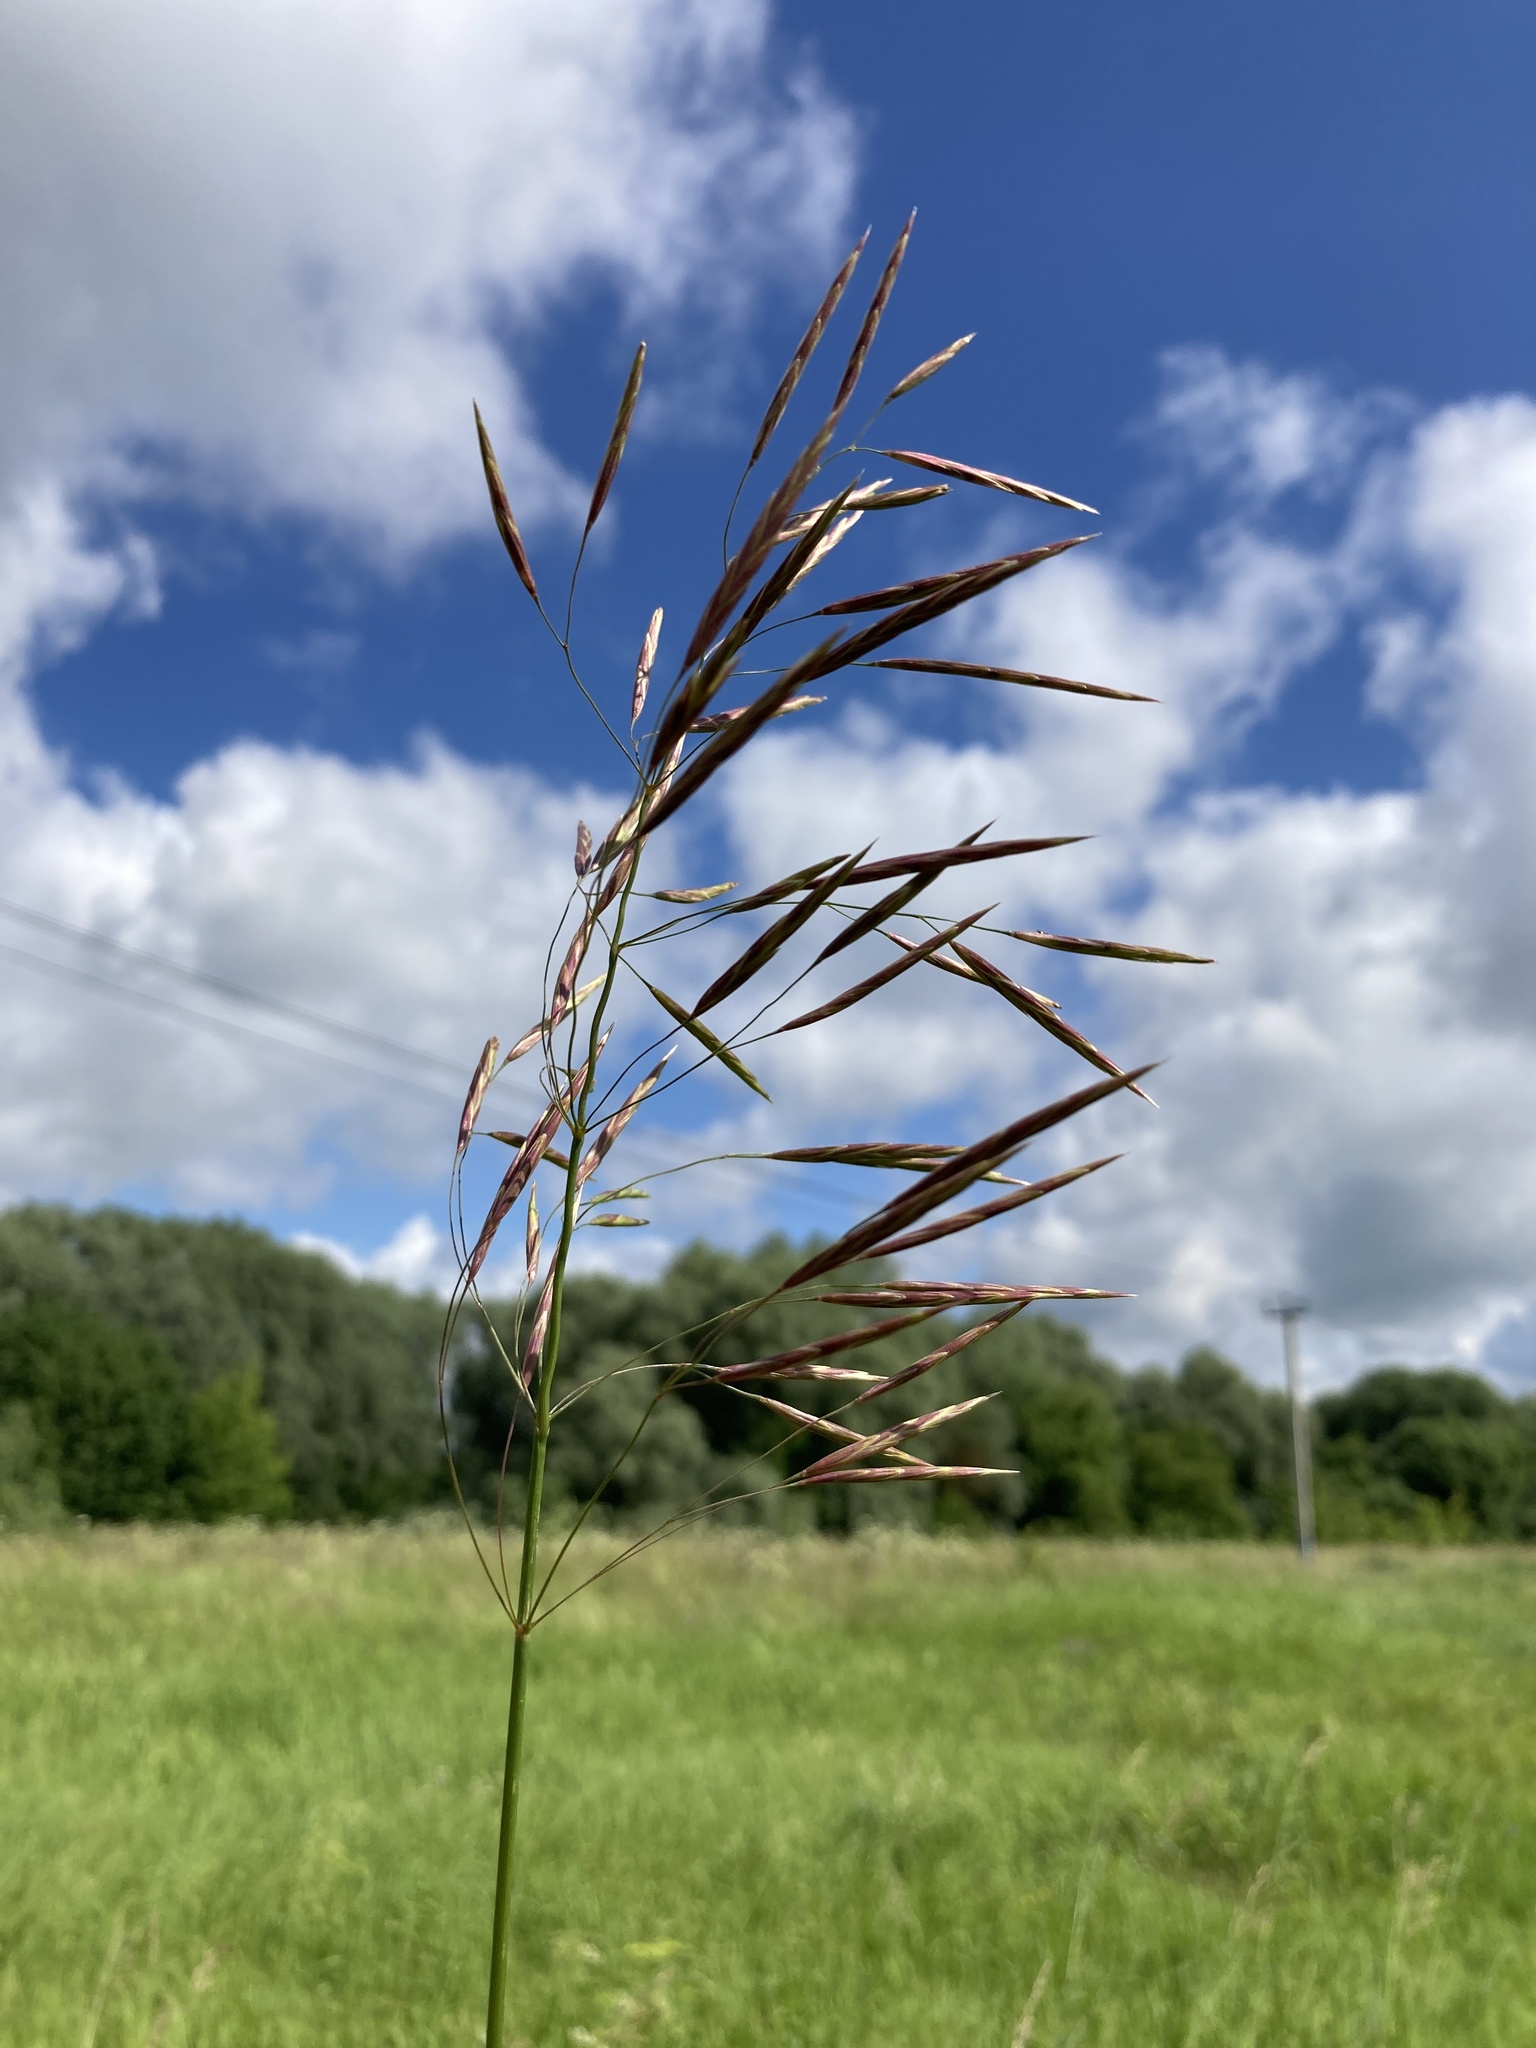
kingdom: Plantae
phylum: Tracheophyta
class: Liliopsida
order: Poales
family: Poaceae
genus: Bromus
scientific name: Bromus inermis
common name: Smooth brome
